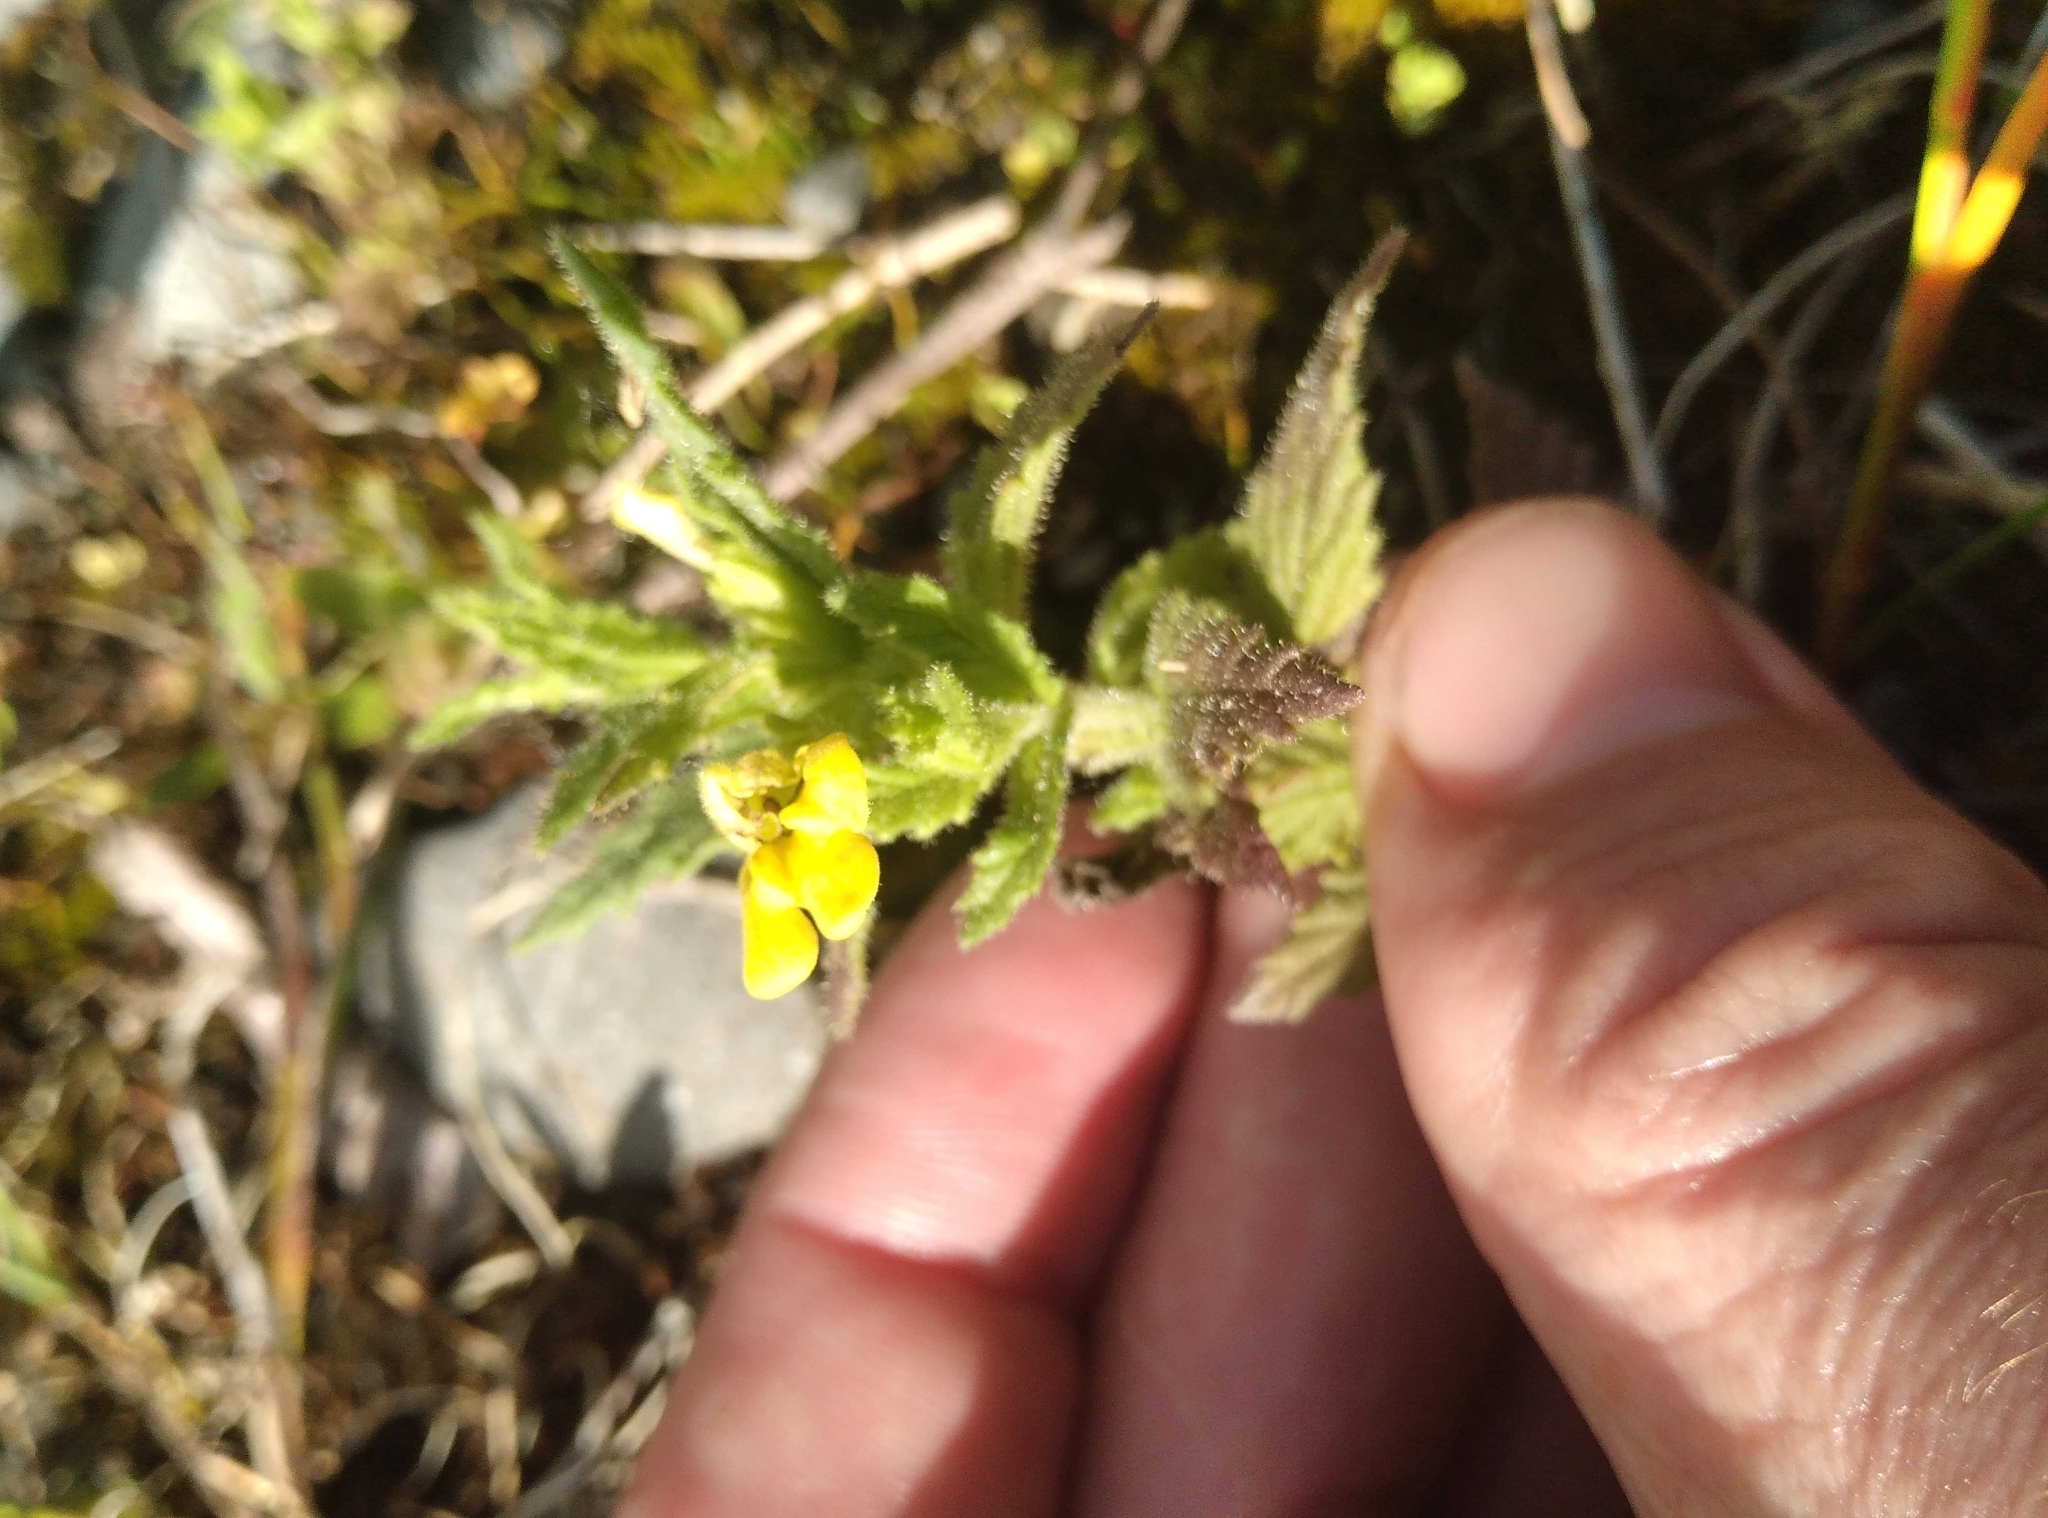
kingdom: Plantae
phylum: Tracheophyta
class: Magnoliopsida
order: Lamiales
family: Orobanchaceae
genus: Bellardia
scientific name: Bellardia viscosa
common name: Sticky parentucellia
